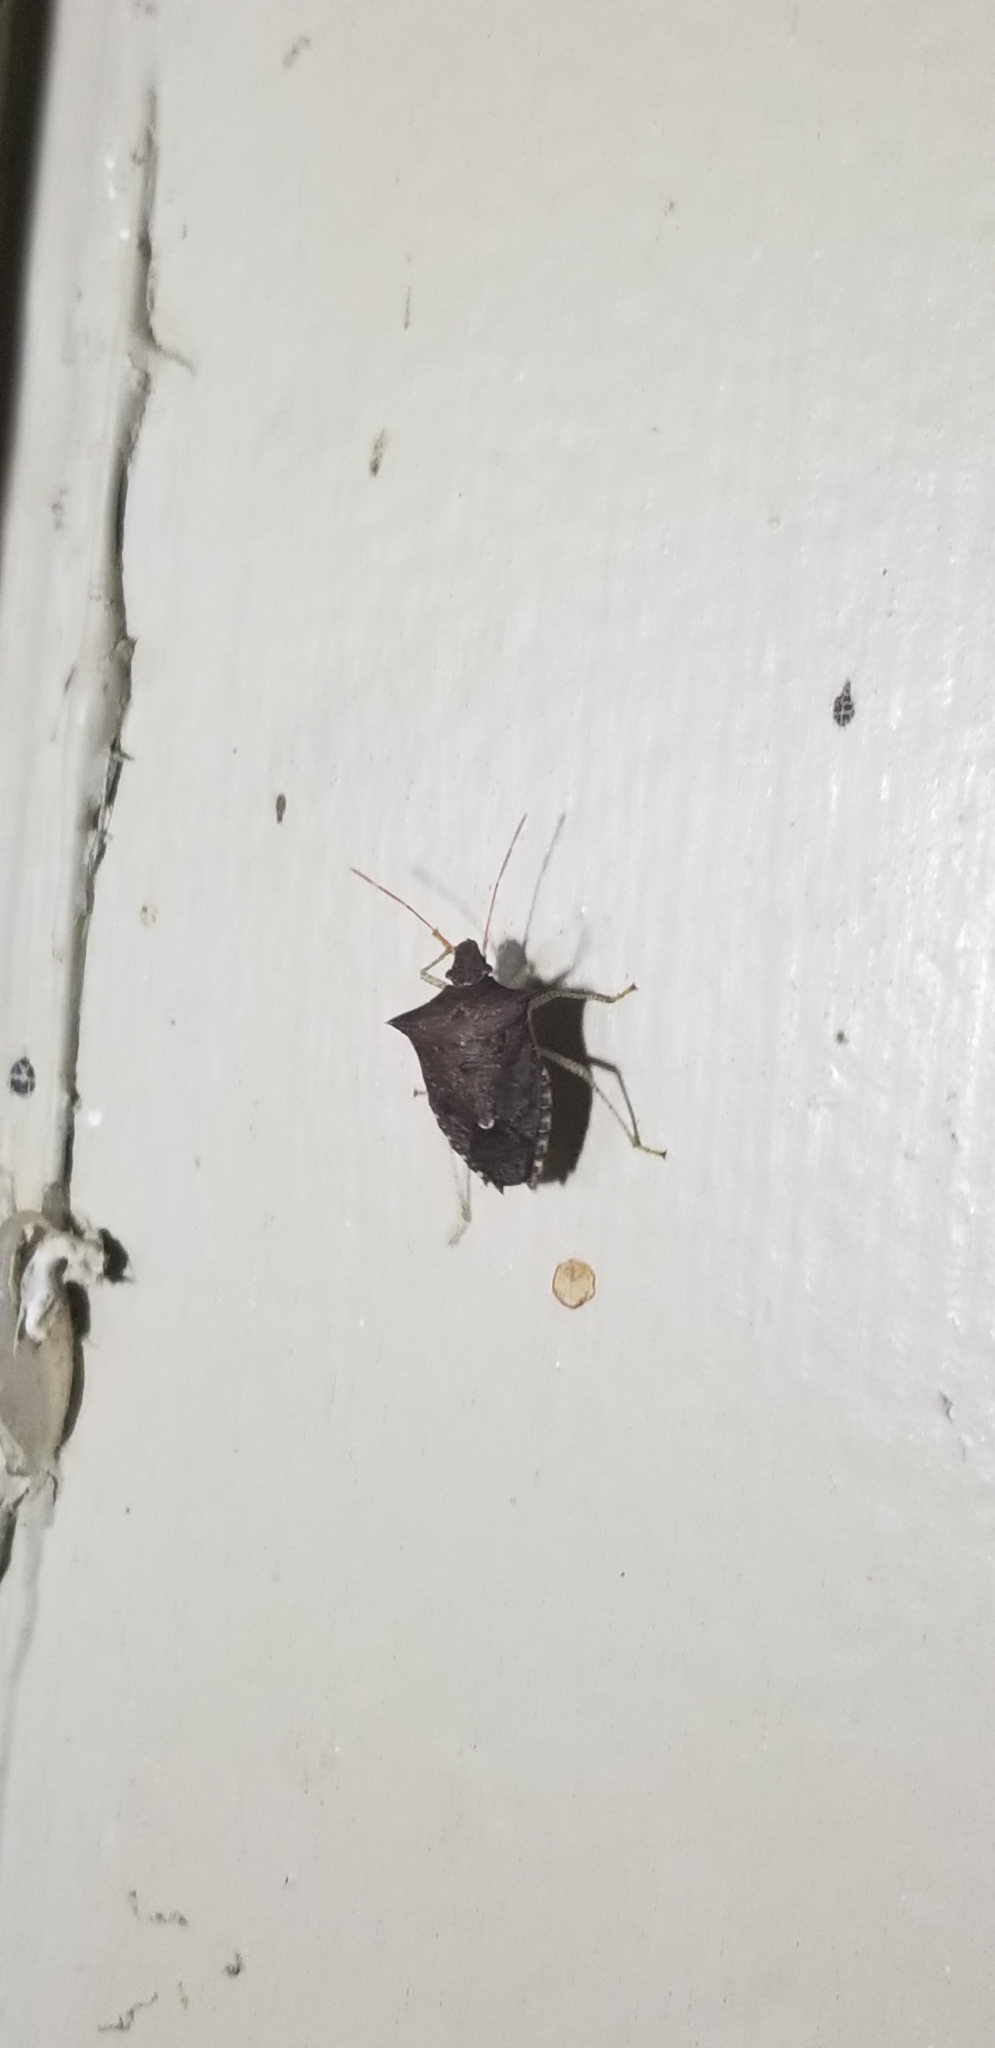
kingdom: Animalia
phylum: Arthropoda
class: Insecta
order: Hemiptera
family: Pentatomidae
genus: Euschistus
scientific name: Euschistus tristigmus
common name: Dusky stink bug
